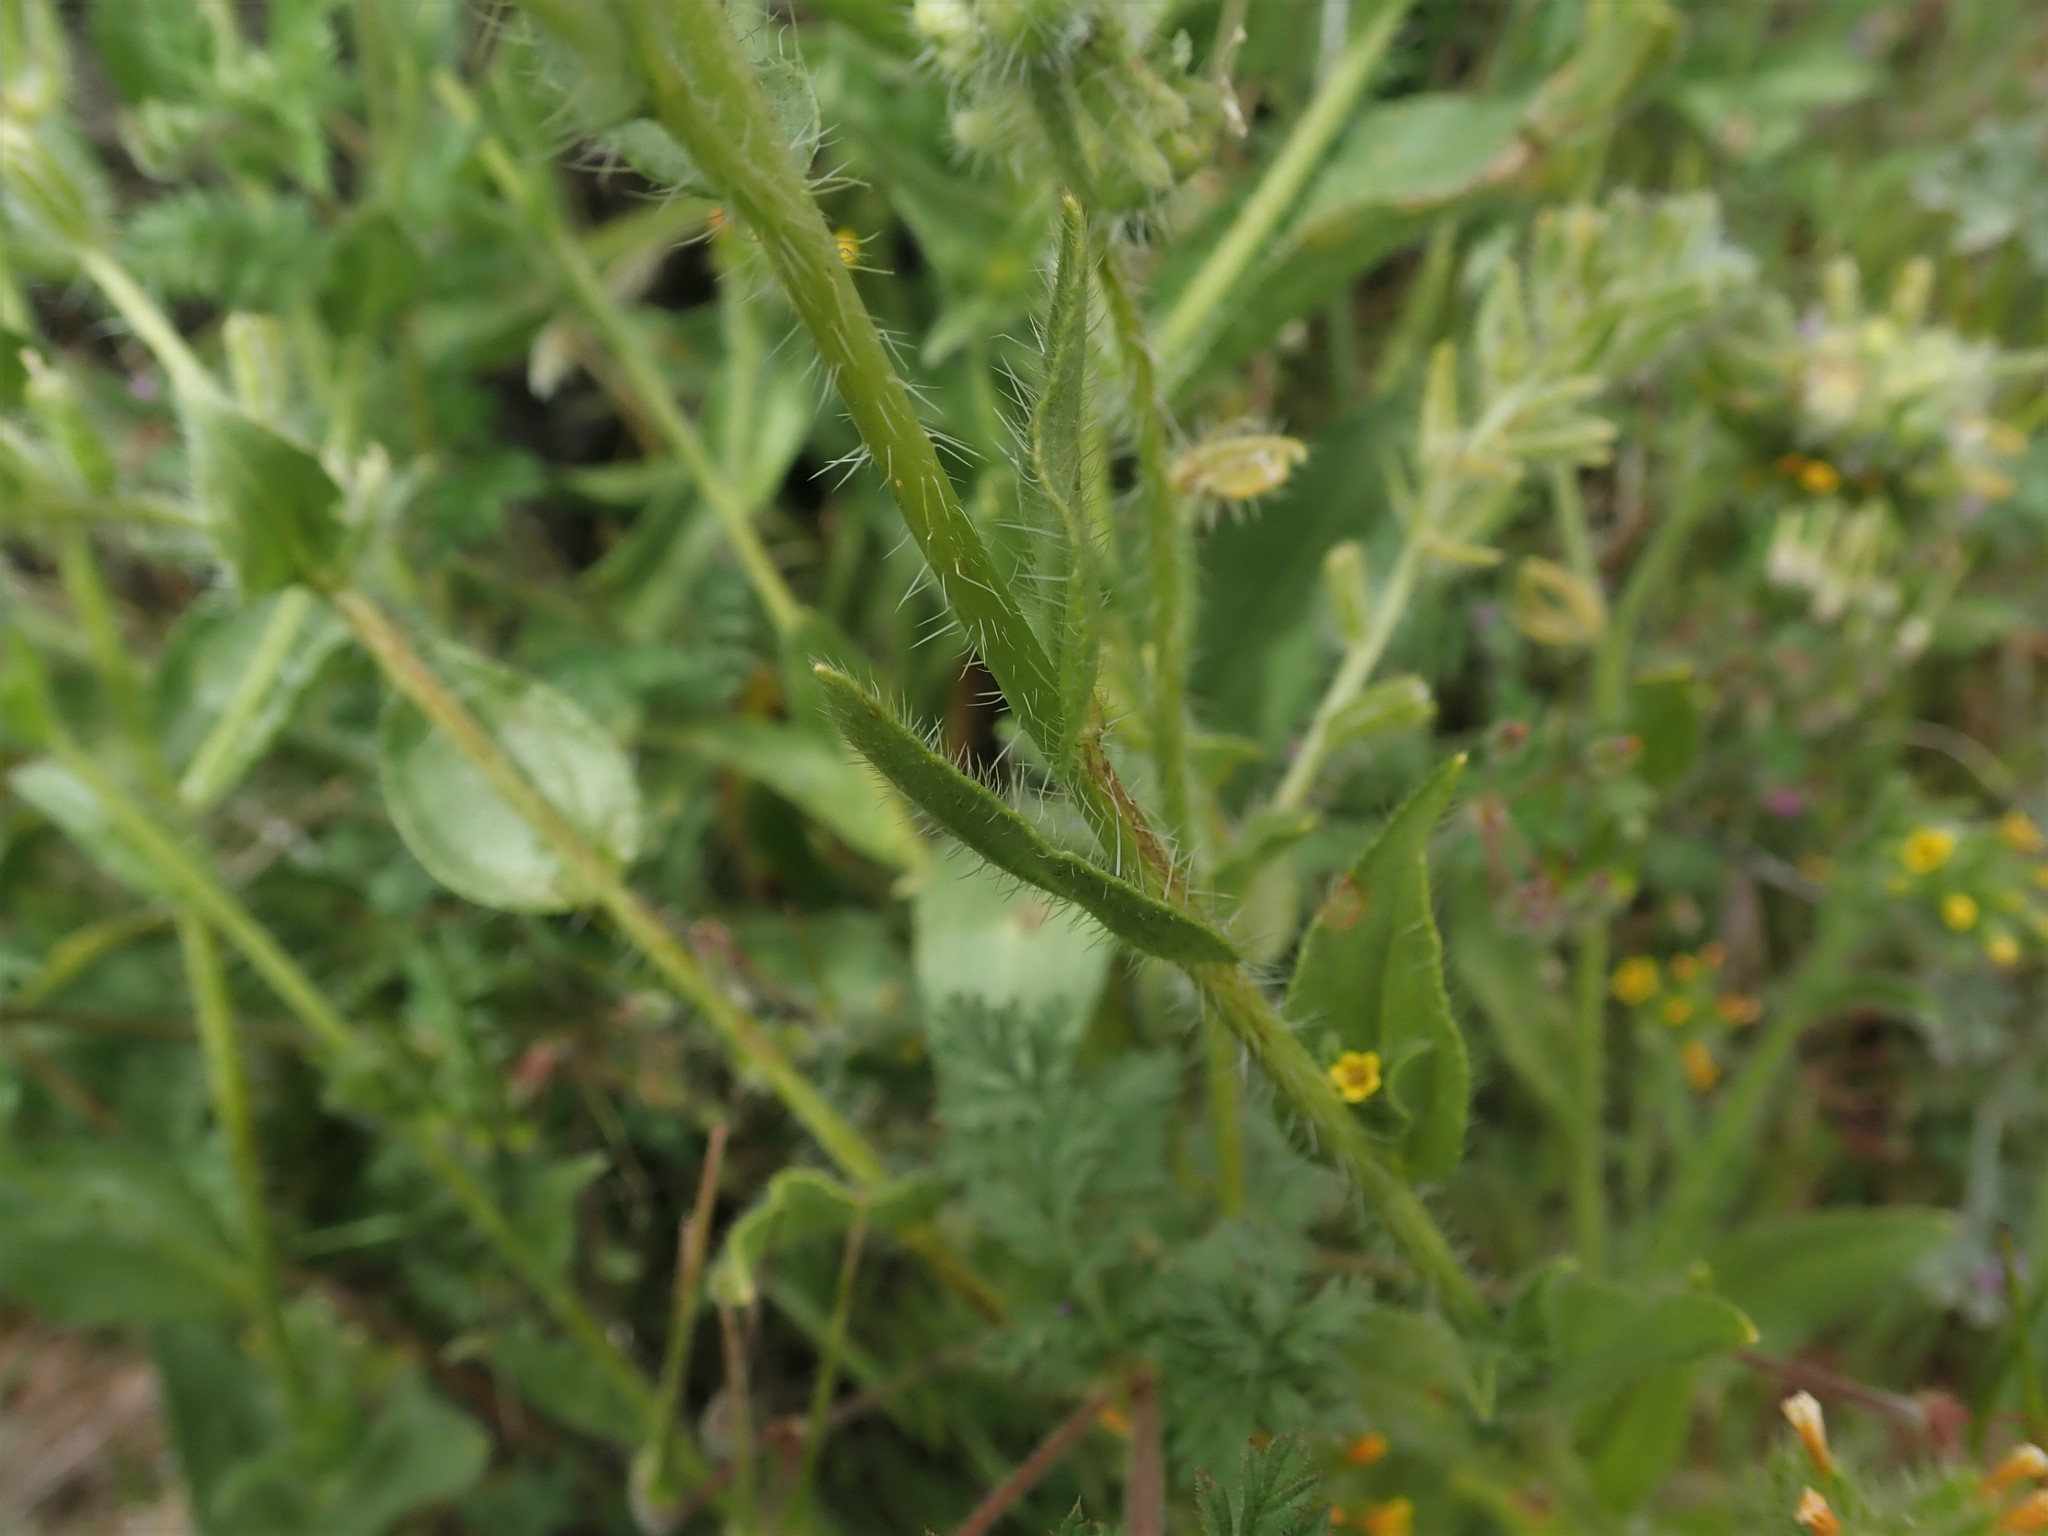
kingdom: Plantae
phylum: Tracheophyta
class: Magnoliopsida
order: Boraginales
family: Boraginaceae
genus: Amsinckia
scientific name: Amsinckia tessellata
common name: Tessellate fiddleneck
